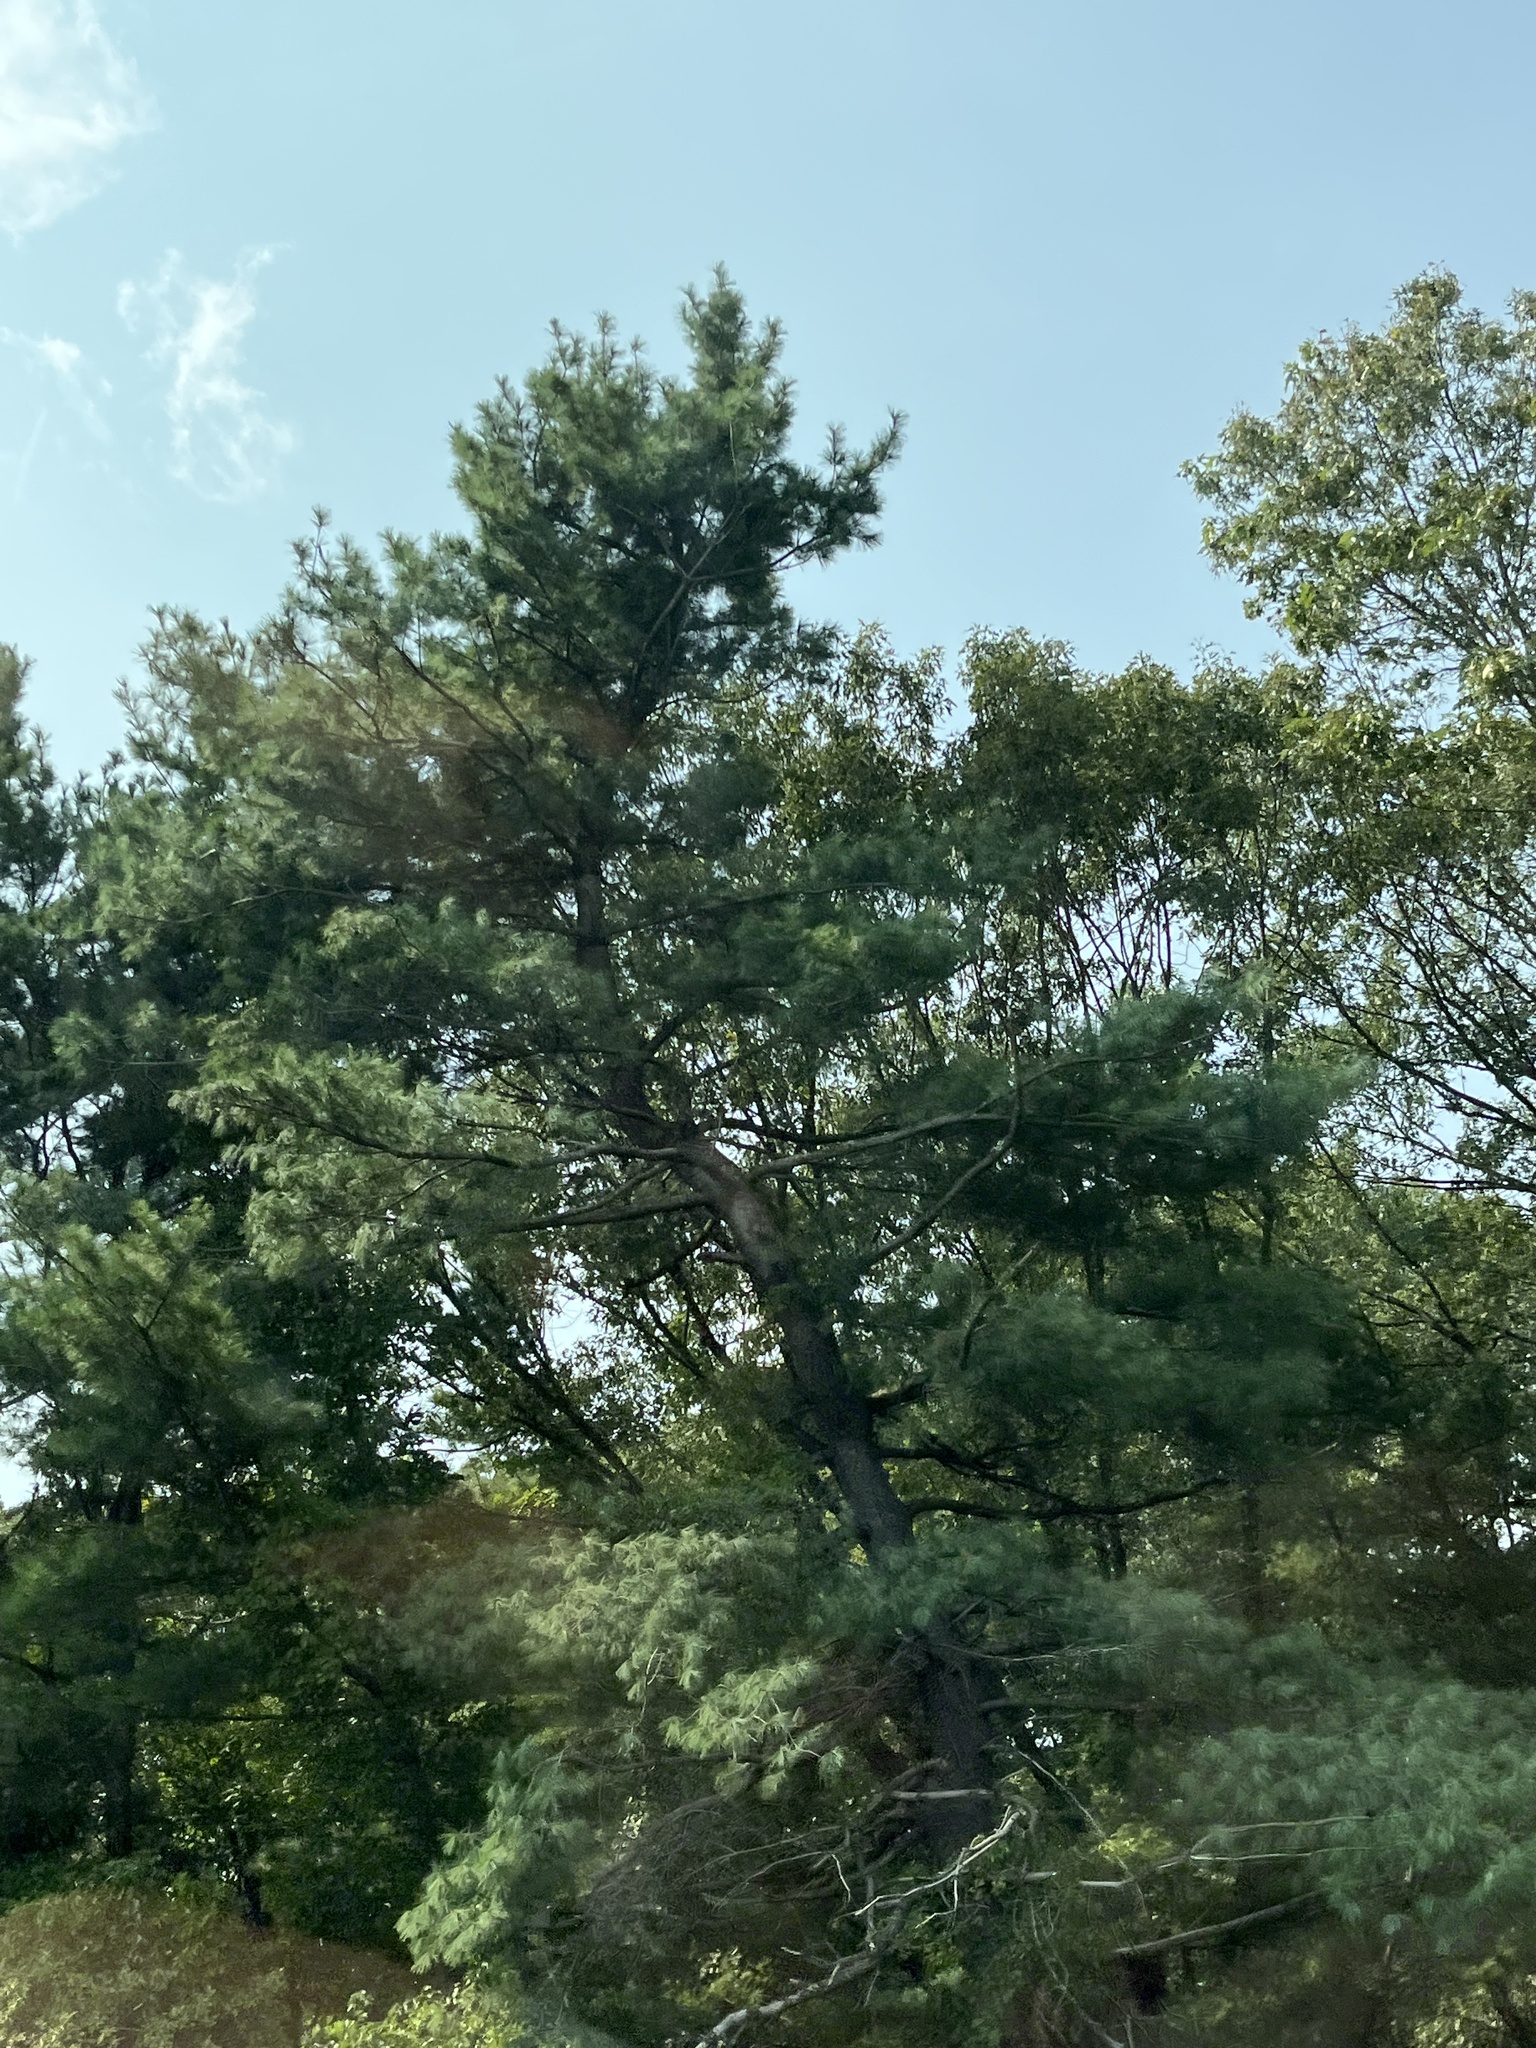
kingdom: Plantae
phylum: Tracheophyta
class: Pinopsida
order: Pinales
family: Pinaceae
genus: Pinus
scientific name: Pinus strobus
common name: Weymouth pine
